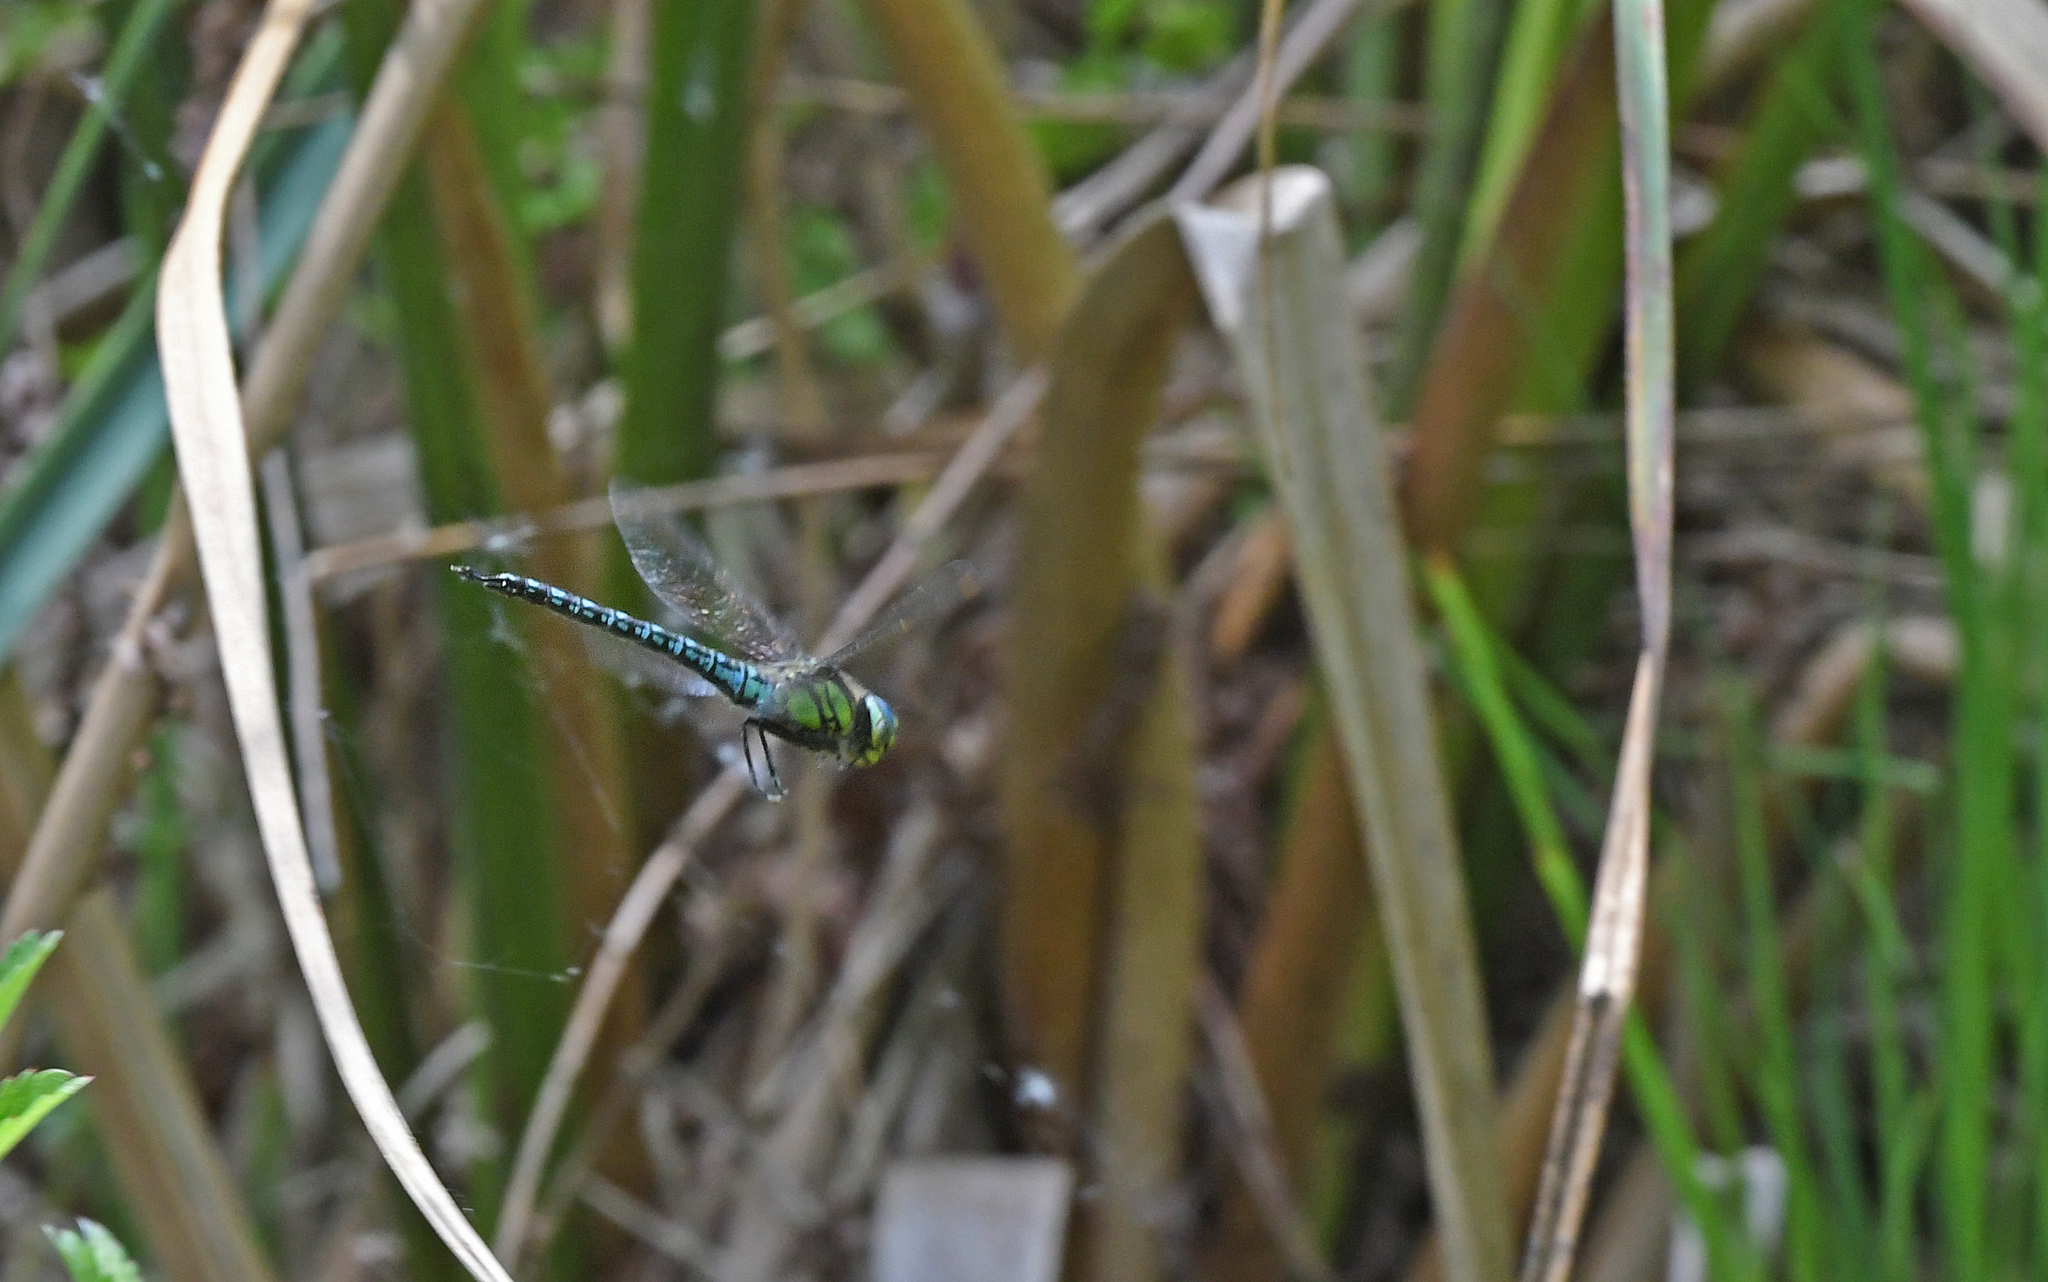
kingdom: Animalia
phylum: Arthropoda
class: Insecta
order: Odonata
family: Aeshnidae
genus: Brachytron
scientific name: Brachytron pratense
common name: Hairy hawker
